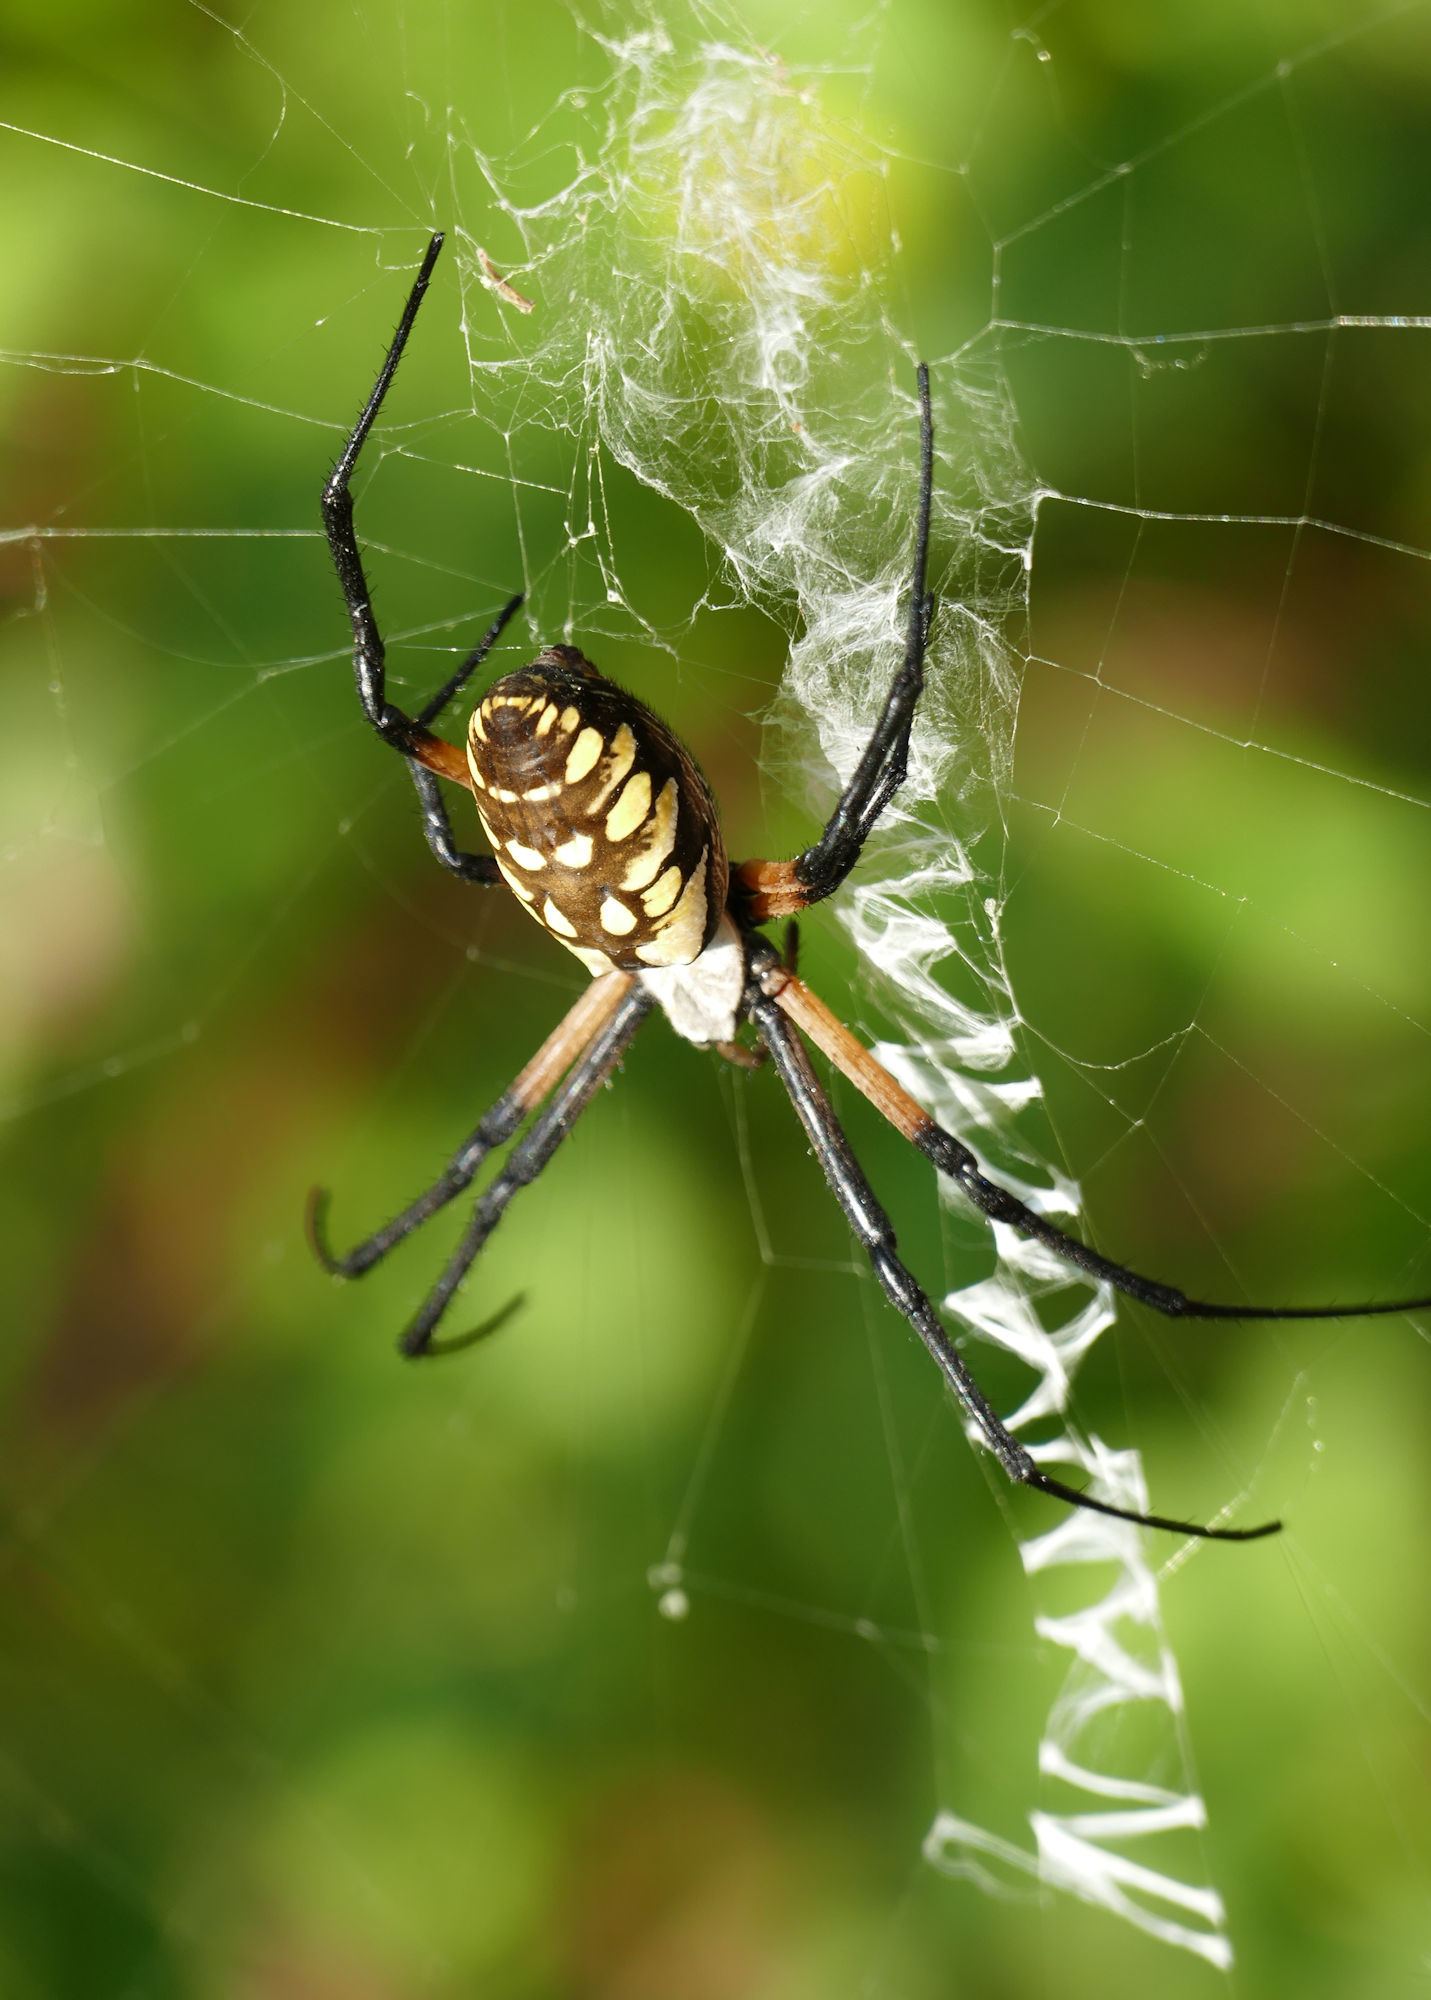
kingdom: Animalia
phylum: Arthropoda
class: Arachnida
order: Araneae
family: Araneidae
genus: Argiope
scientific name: Argiope aurantia
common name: Orb weavers
